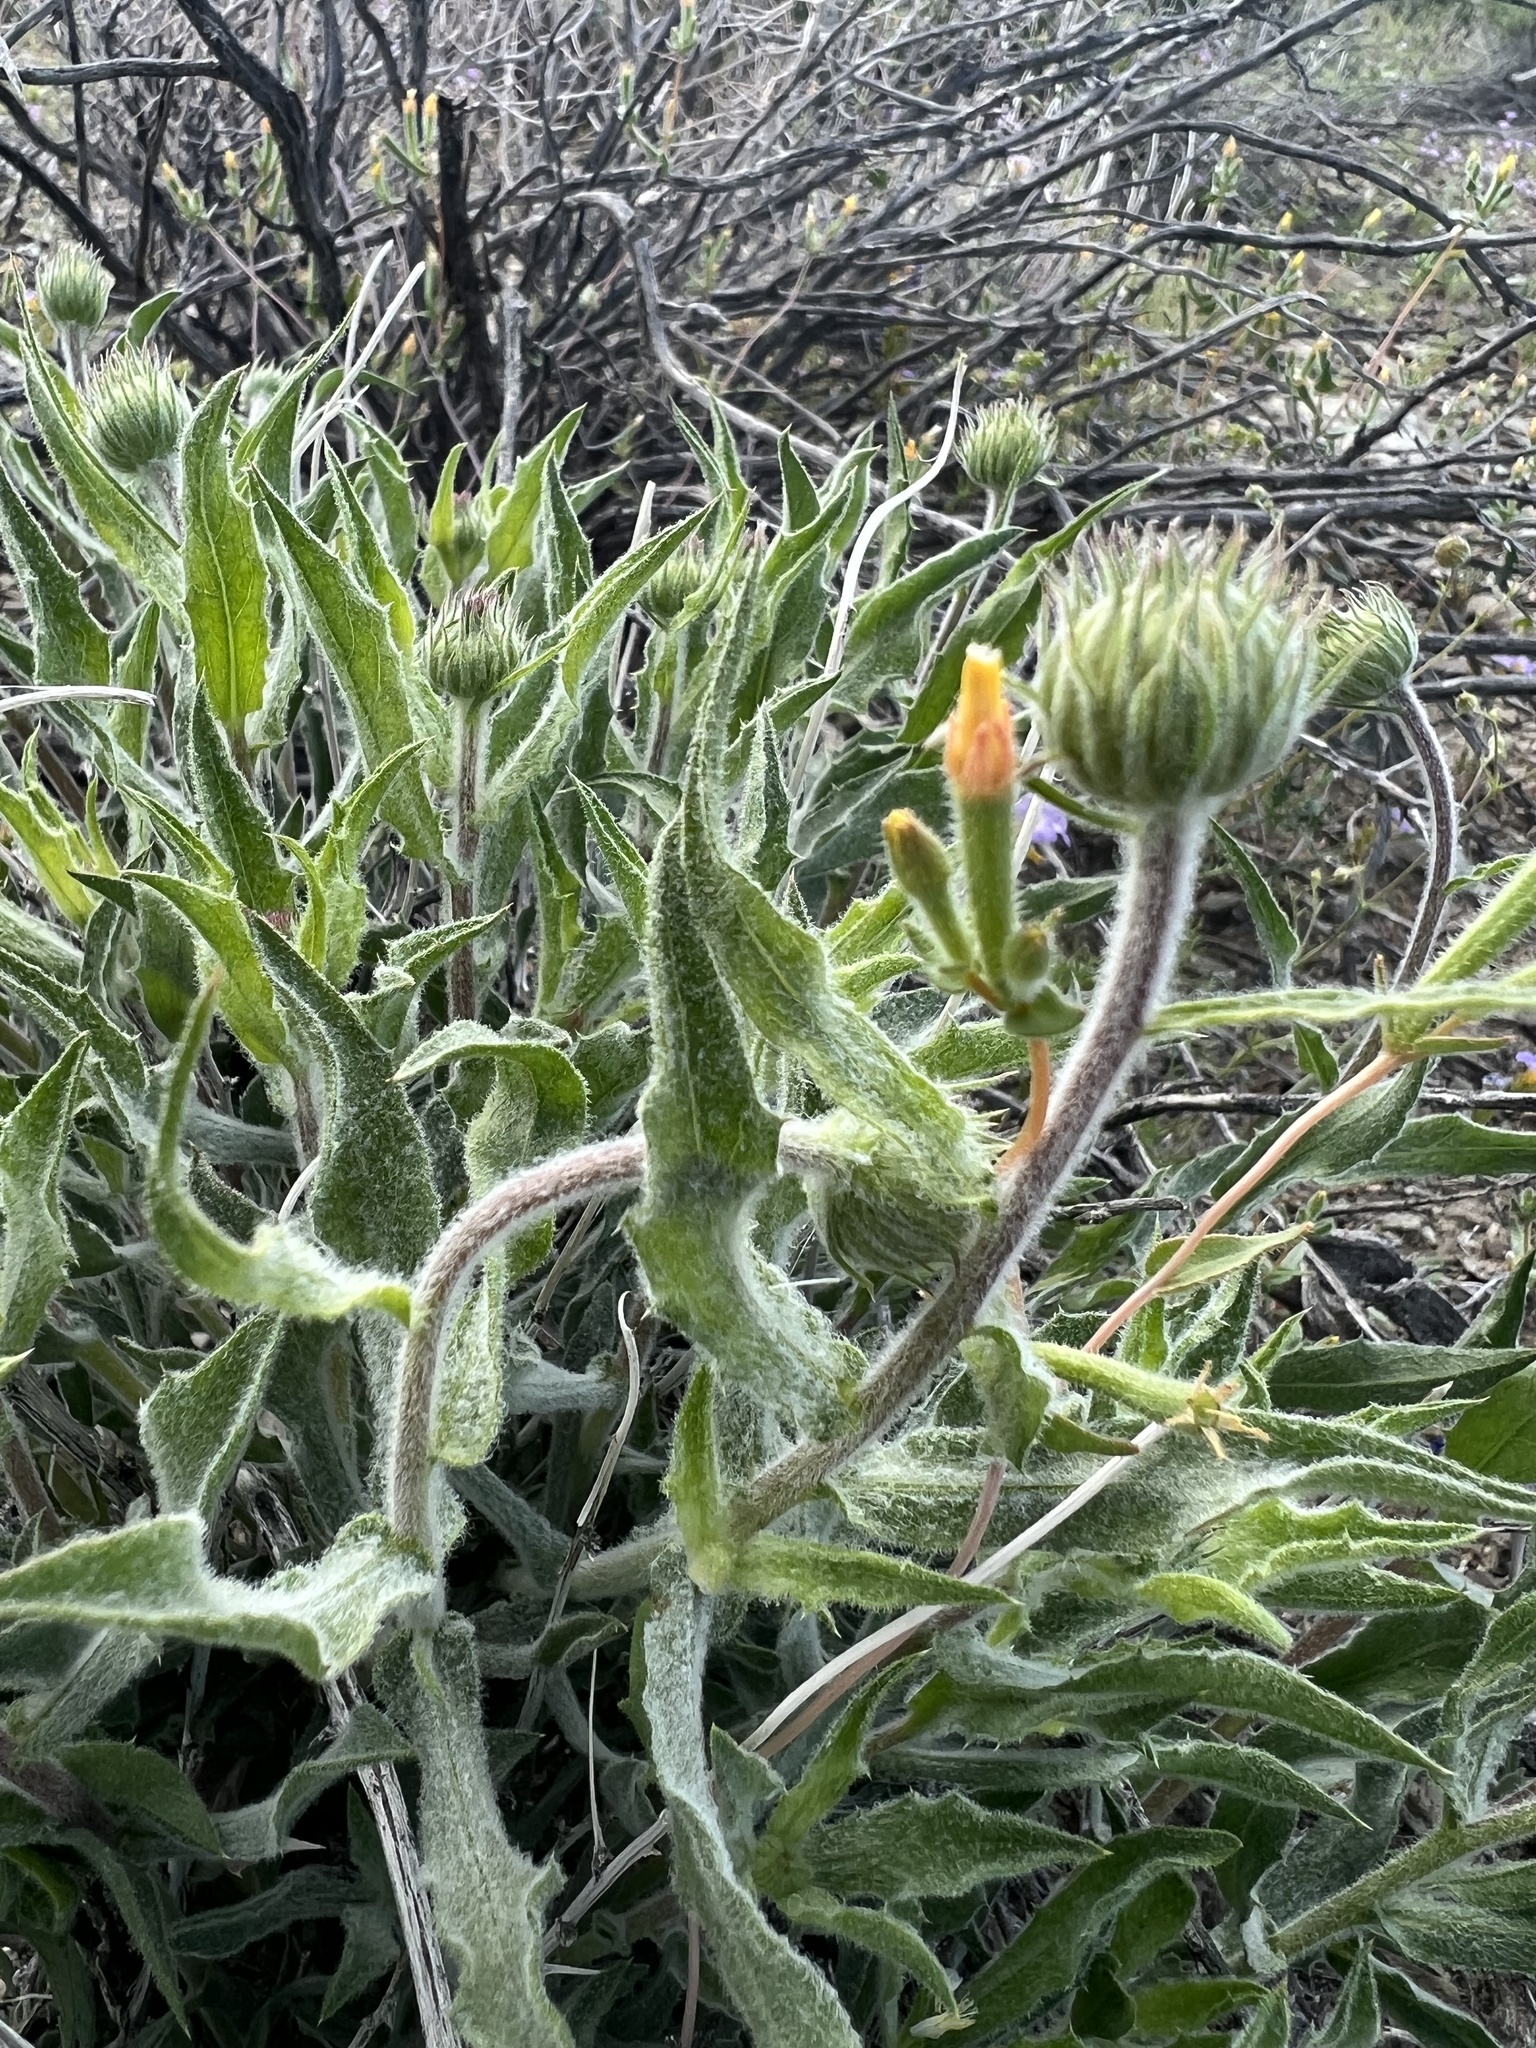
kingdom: Plantae
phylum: Tracheophyta
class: Magnoliopsida
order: Asterales
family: Asteraceae
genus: Xylorhiza
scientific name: Xylorhiza tortifolia
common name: Hurt-leaf woody-aster
